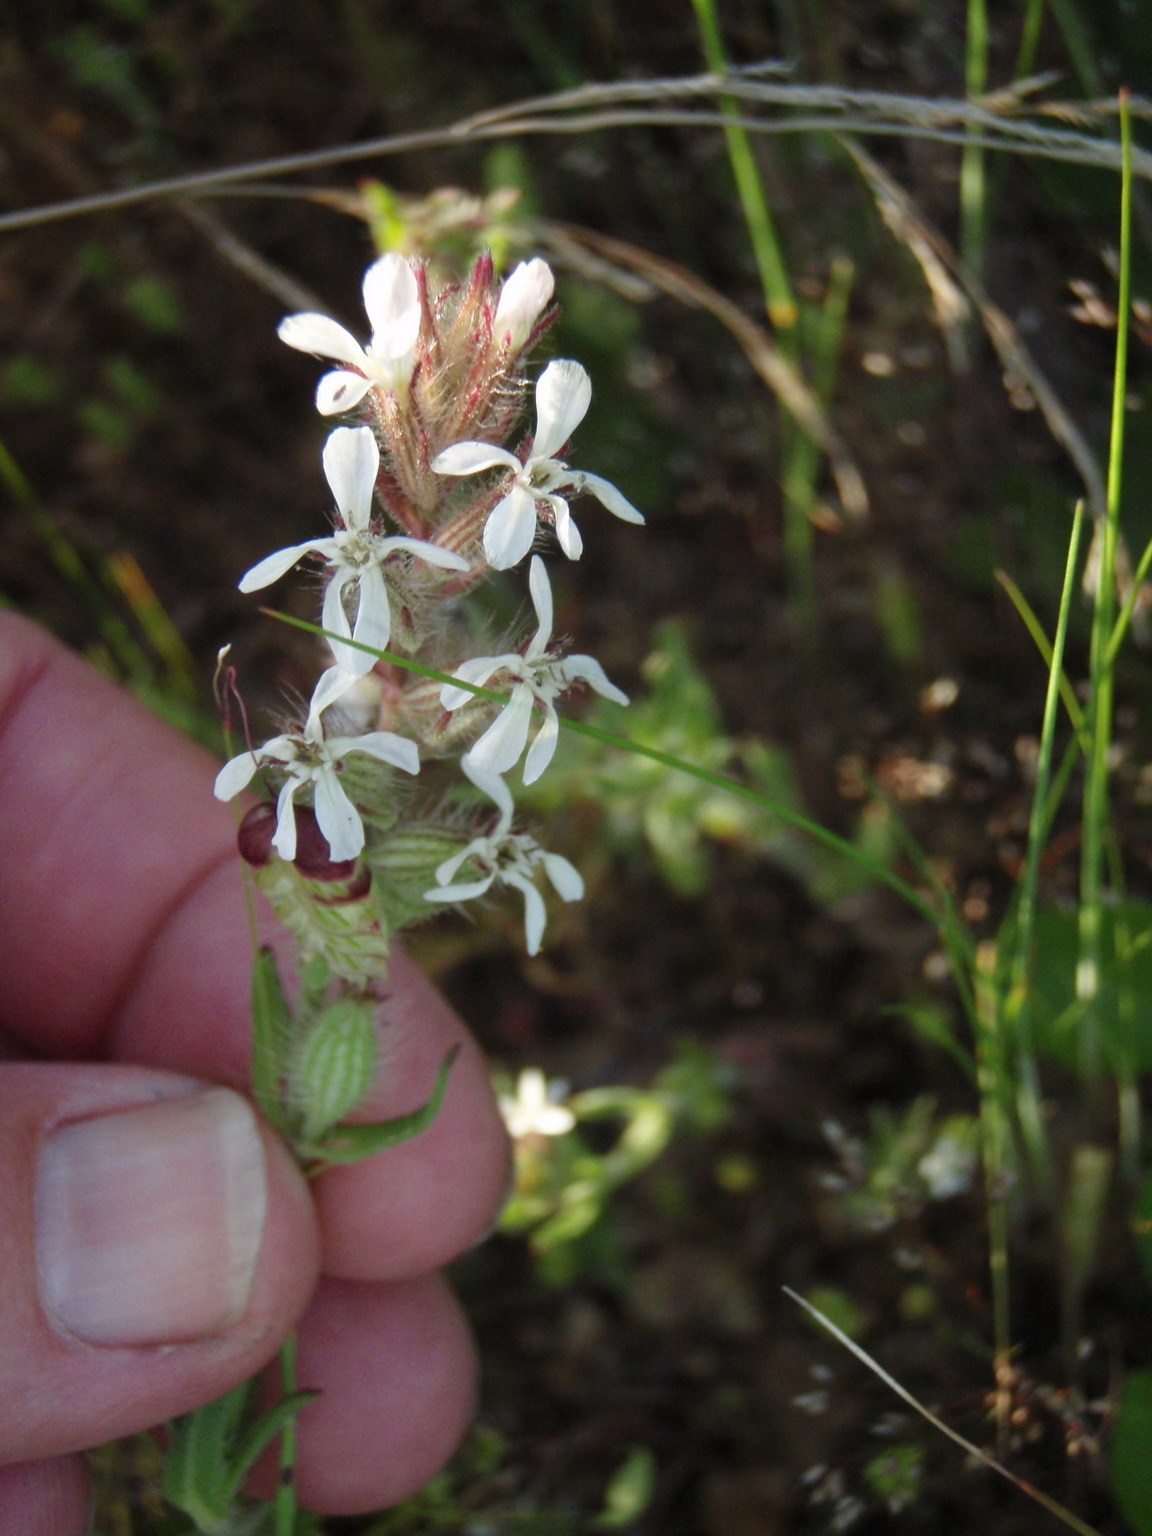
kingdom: Plantae
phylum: Tracheophyta
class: Magnoliopsida
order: Caryophyllales
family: Caryophyllaceae
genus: Silene
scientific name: Silene gallica
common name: Small-flowered catchfly
